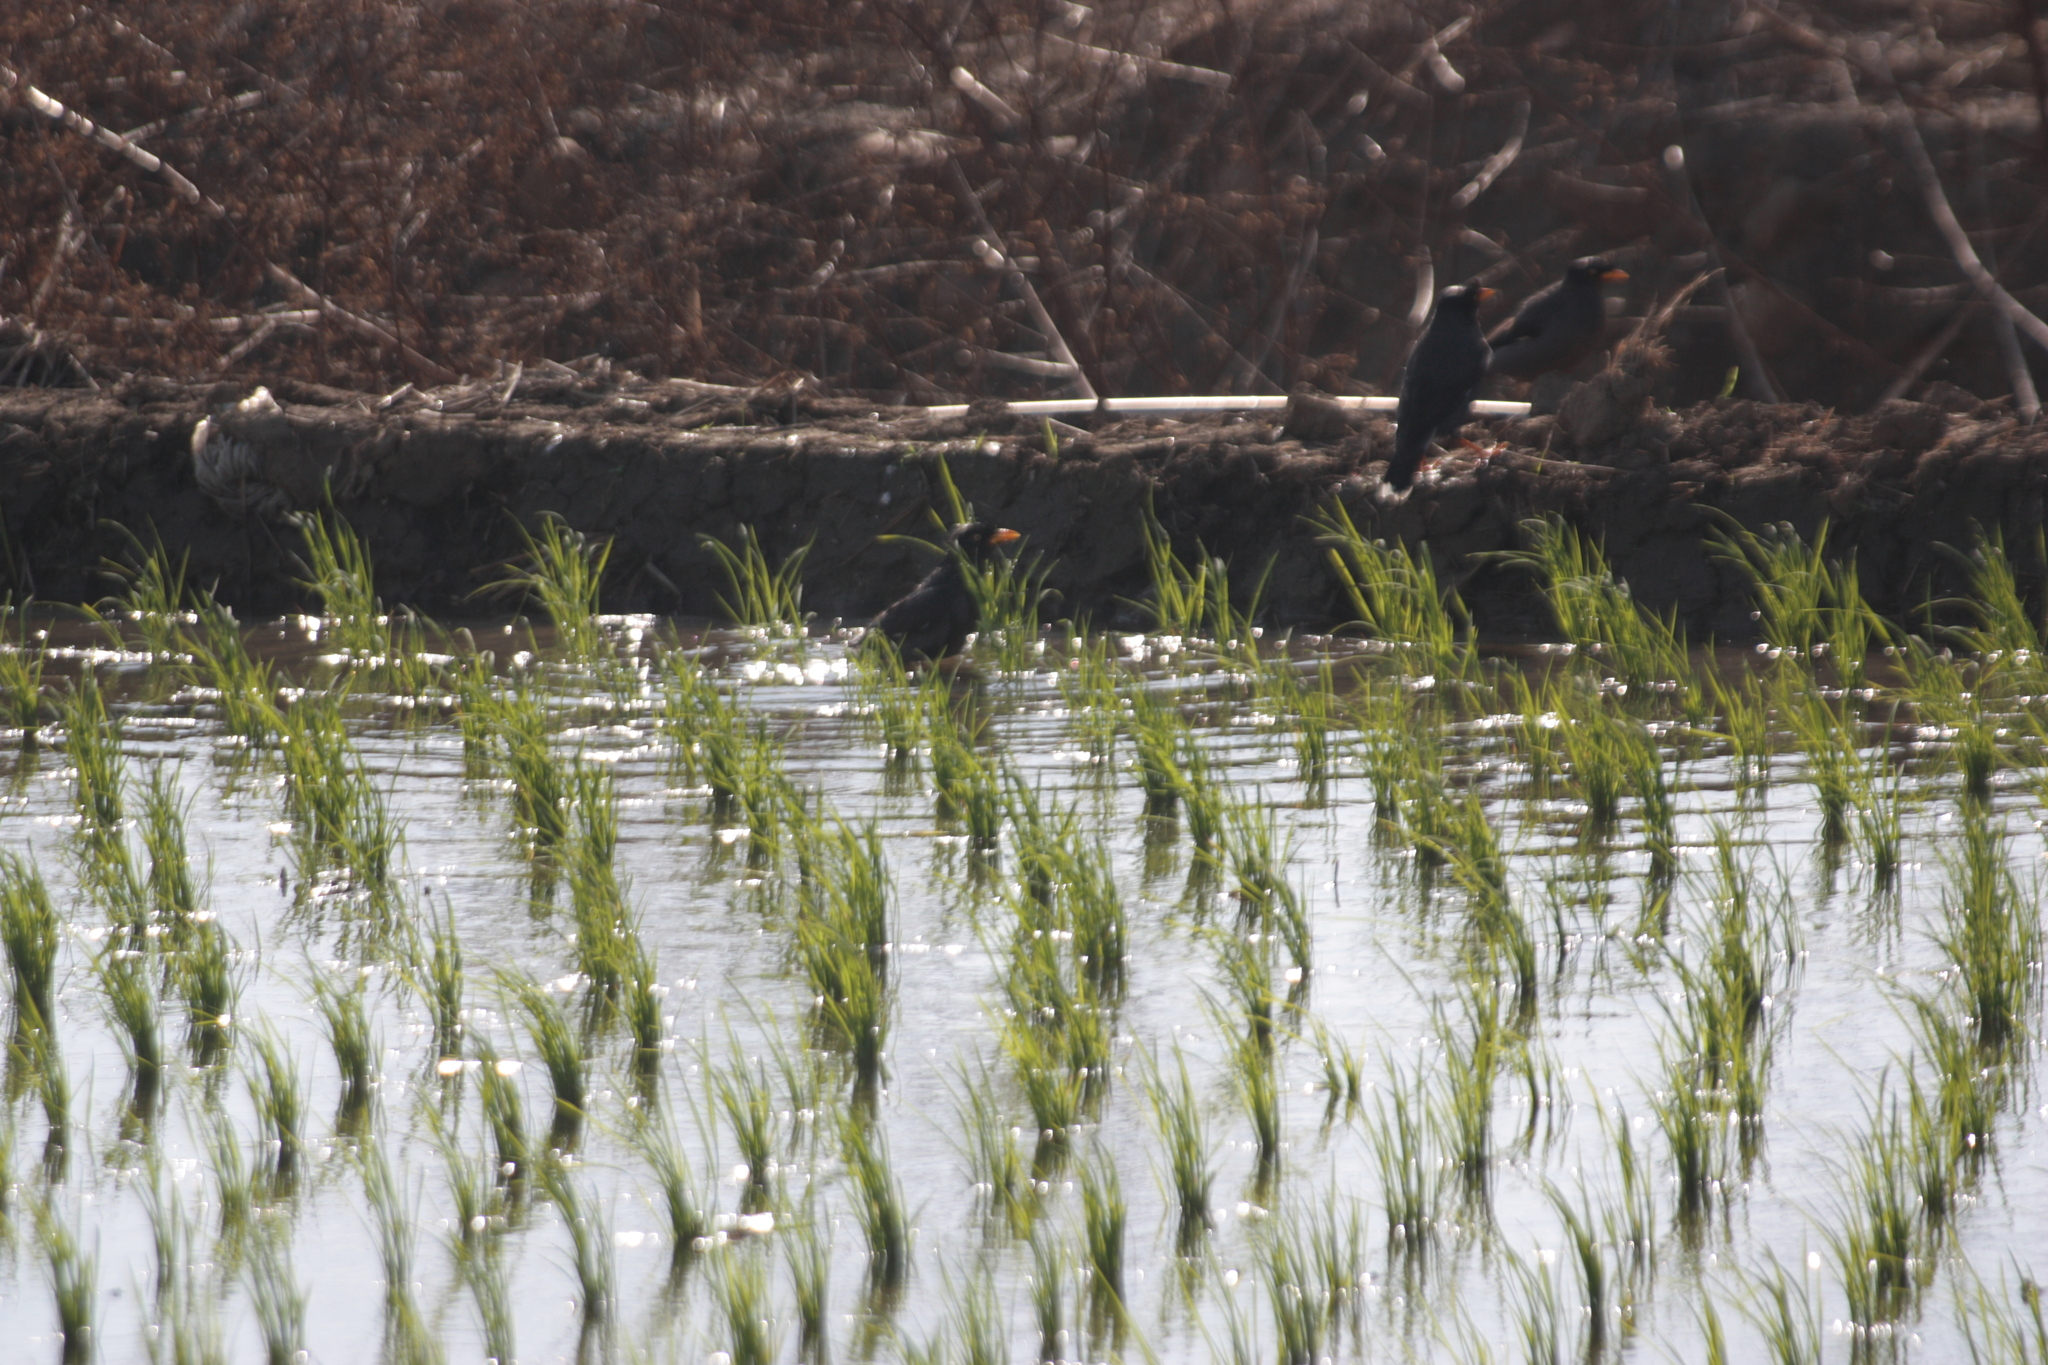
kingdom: Animalia
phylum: Chordata
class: Aves
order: Passeriformes
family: Sturnidae
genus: Acridotheres
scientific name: Acridotheres javanicus
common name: Javan myna
